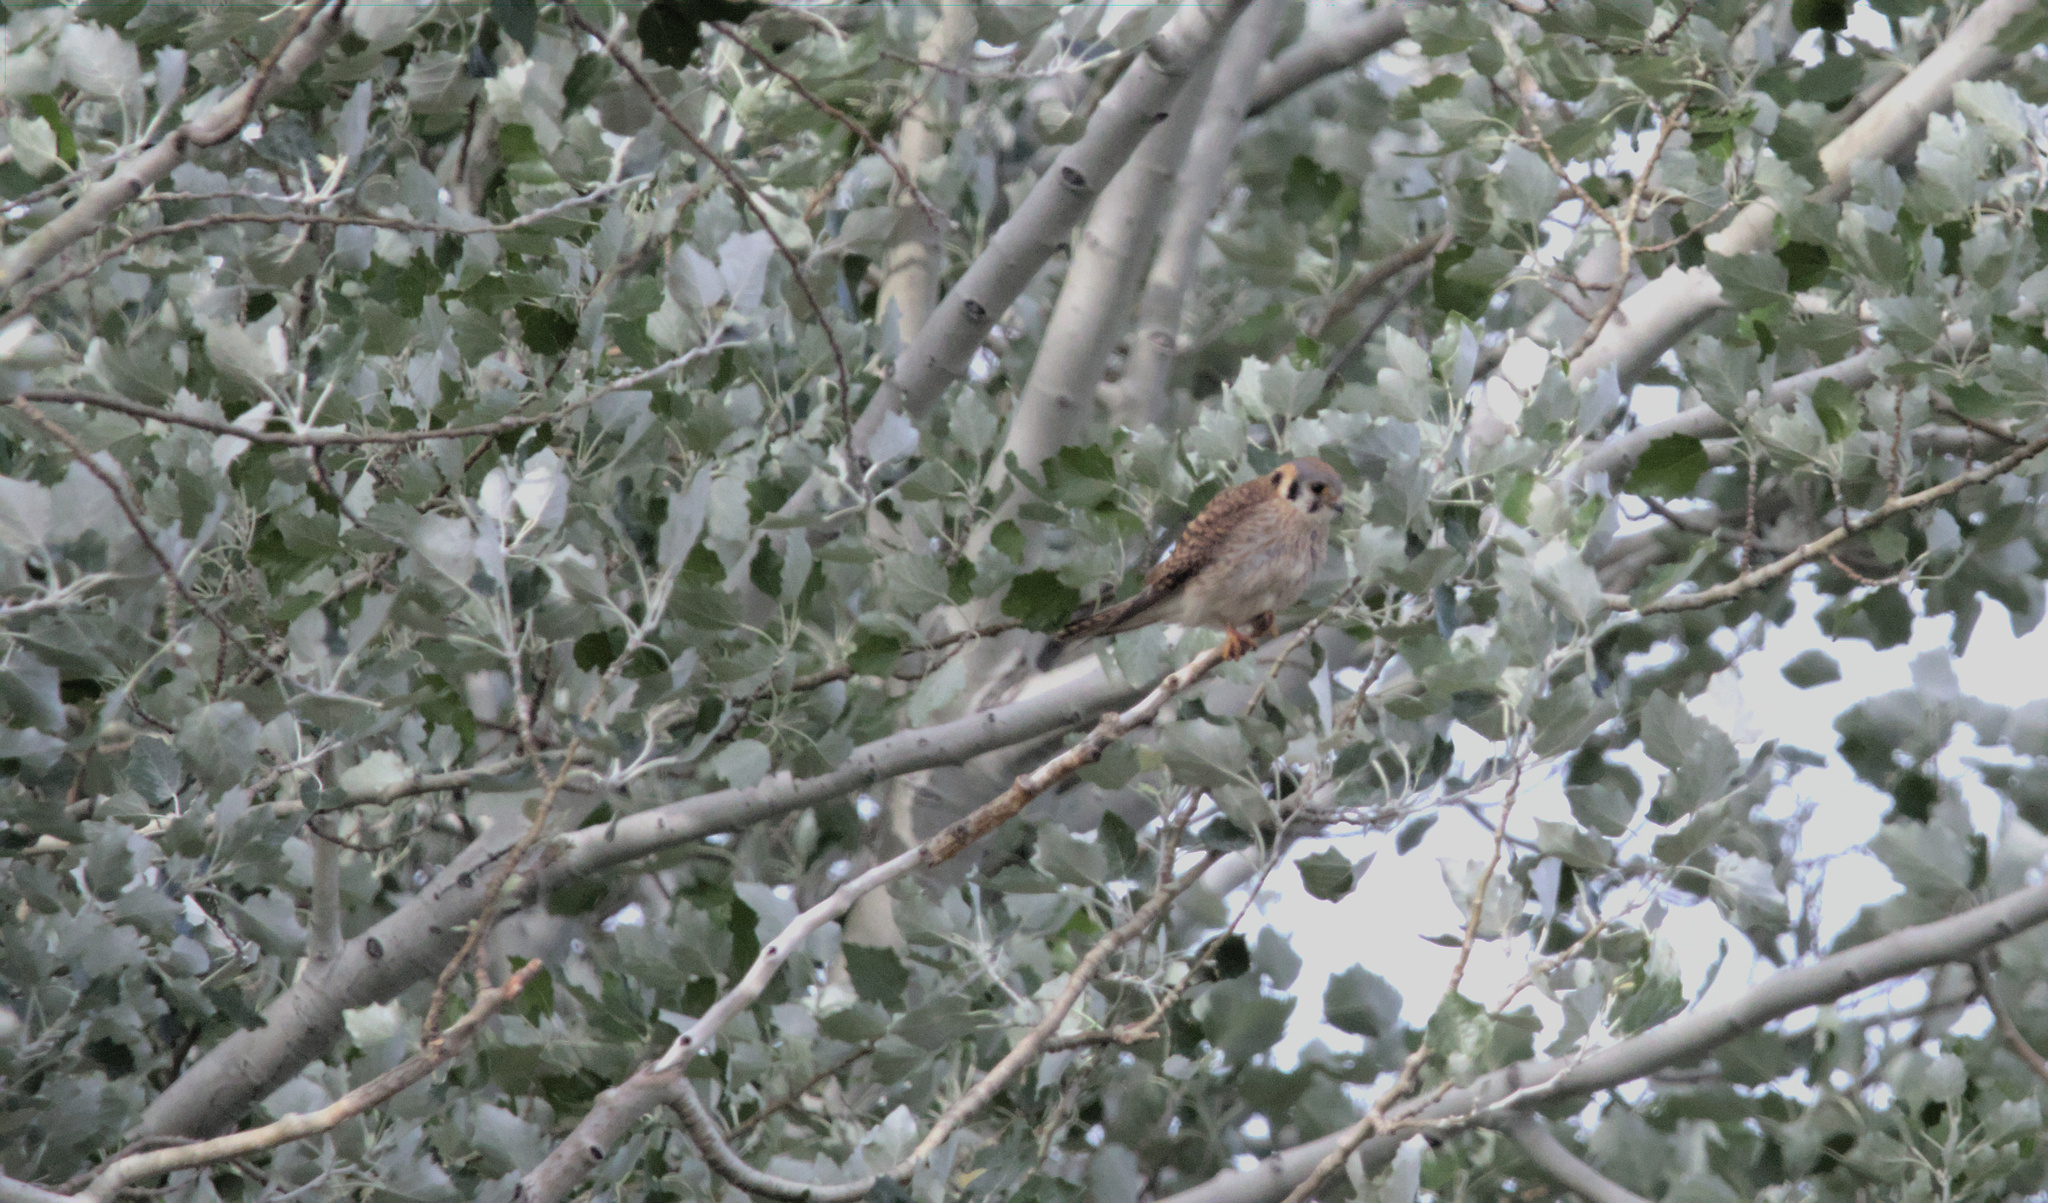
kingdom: Animalia
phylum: Chordata
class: Aves
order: Falconiformes
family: Falconidae
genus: Falco
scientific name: Falco sparverius
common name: American kestrel
